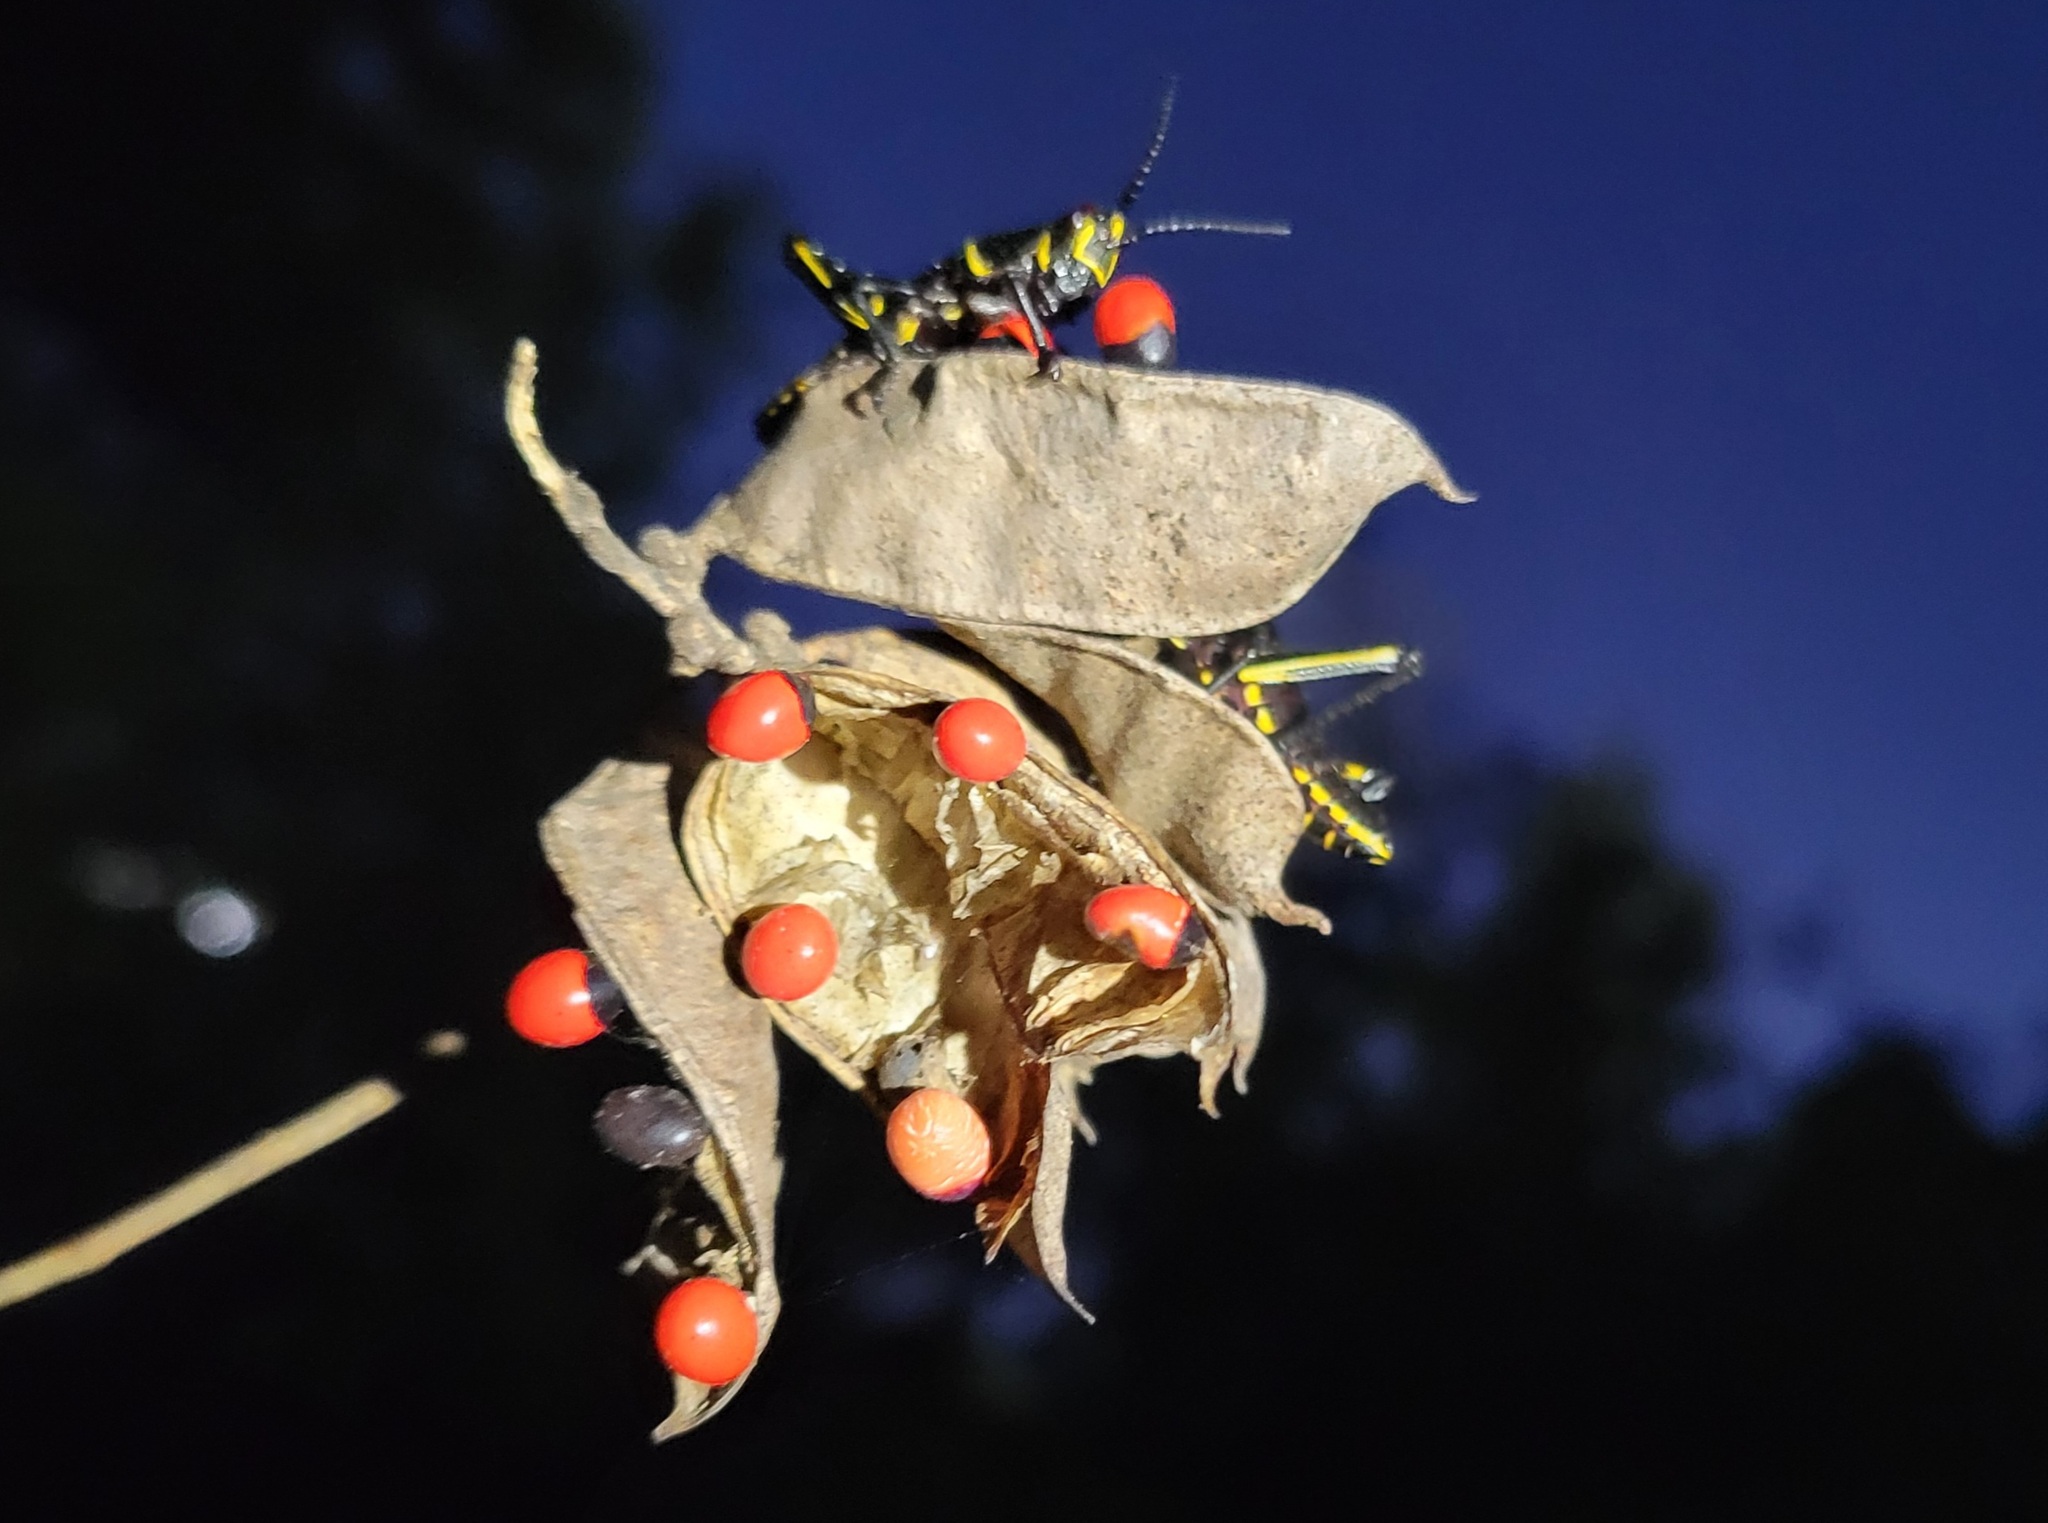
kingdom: Animalia
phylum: Arthropoda
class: Insecta
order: Orthoptera
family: Romaleidae
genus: Romalea
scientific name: Romalea microptera
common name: Eastern lubber grasshopper
